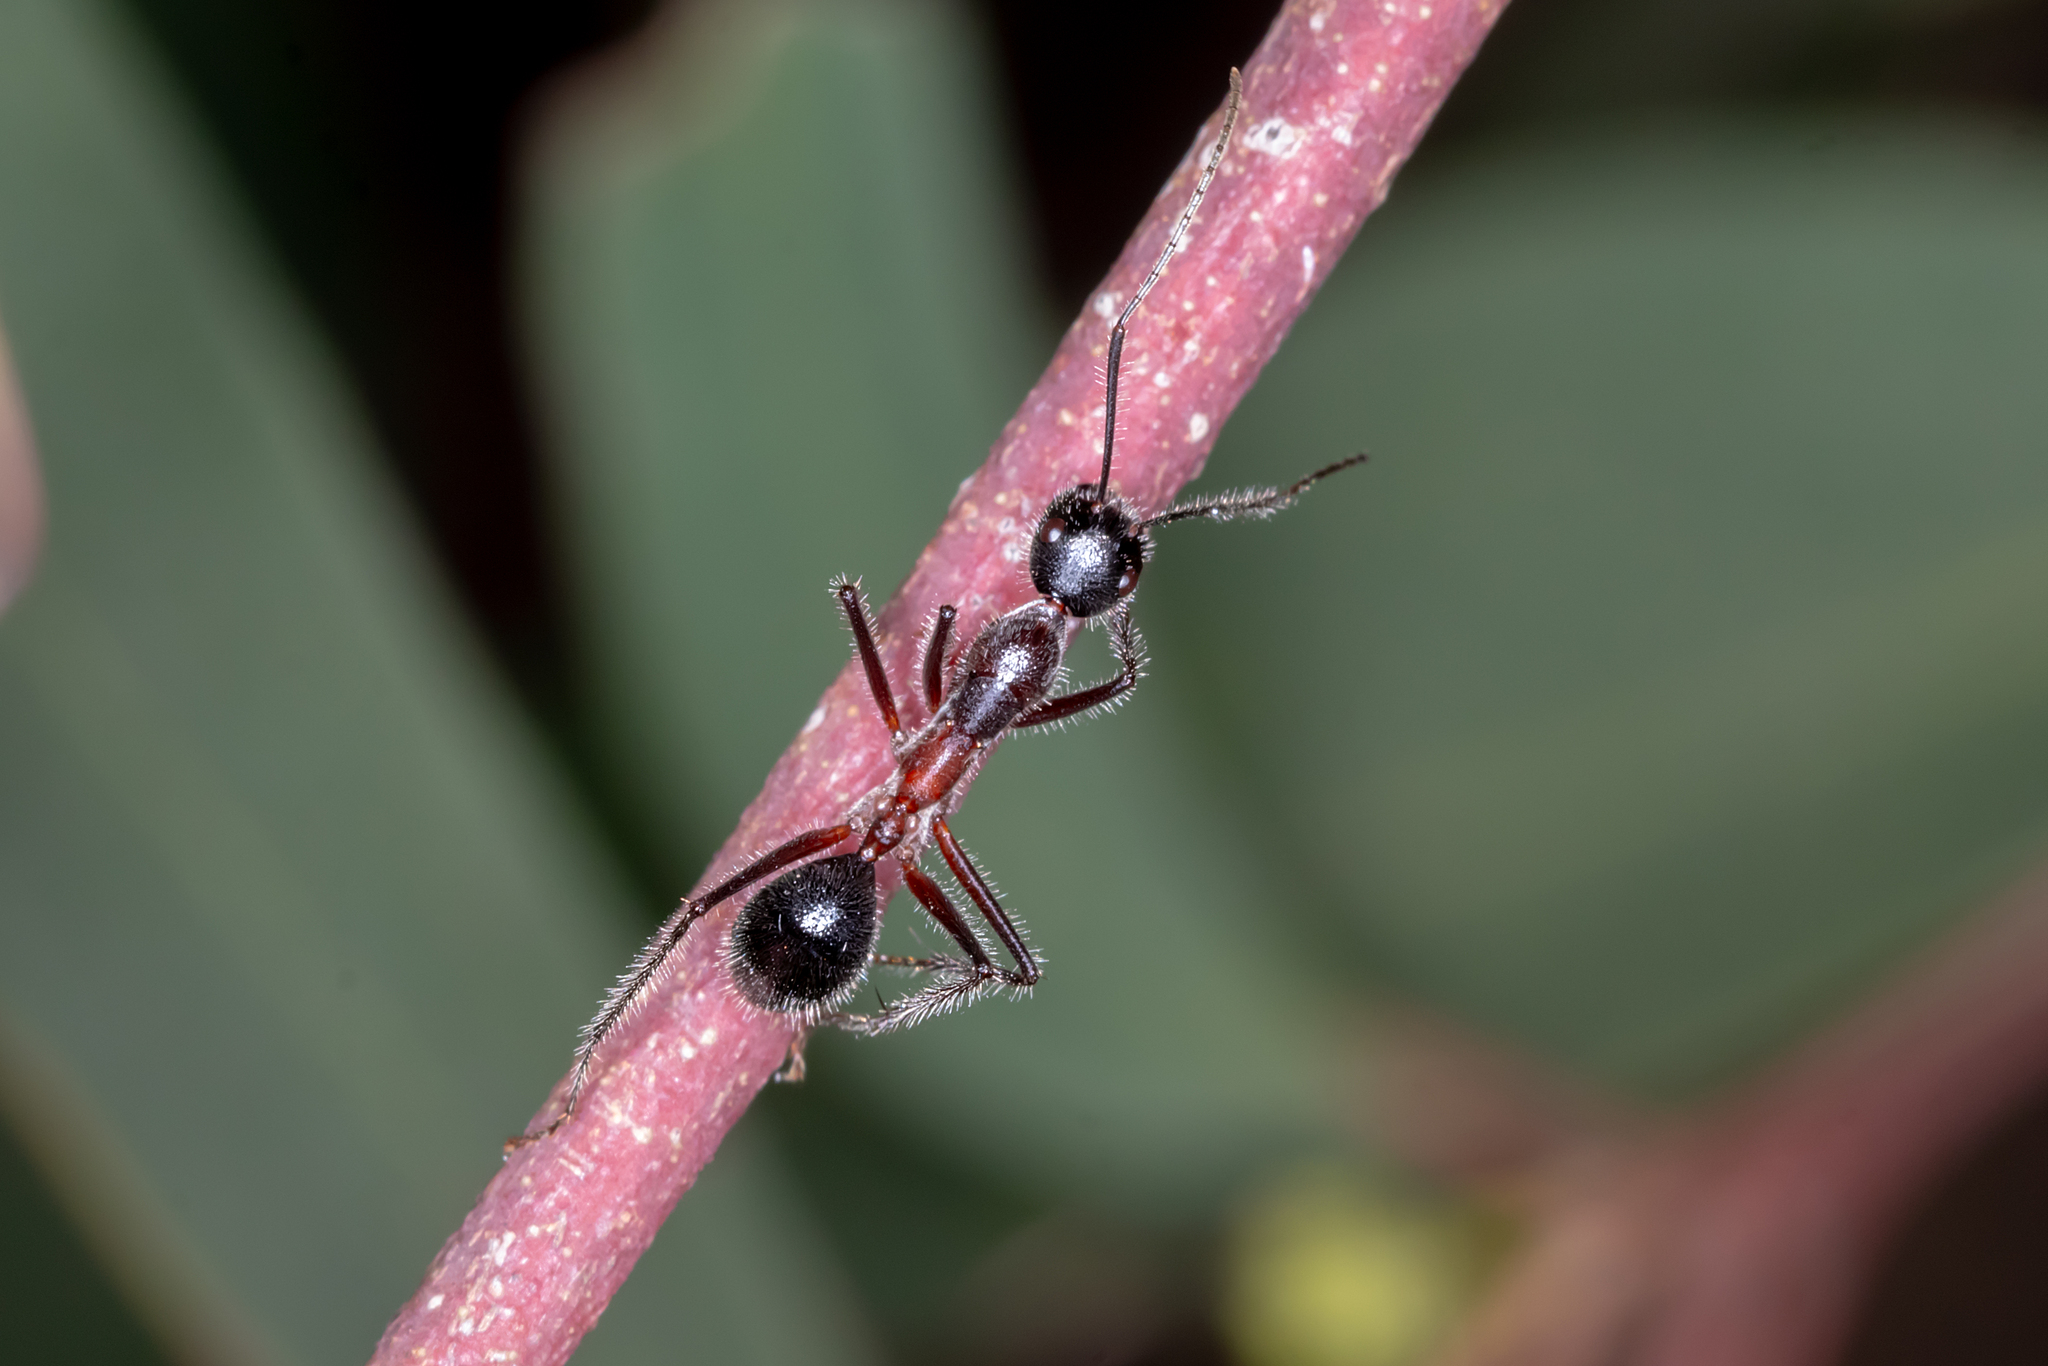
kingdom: Animalia
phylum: Arthropoda
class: Insecta
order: Hymenoptera
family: Formicidae
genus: Camponotus
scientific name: Camponotus intrepidus
